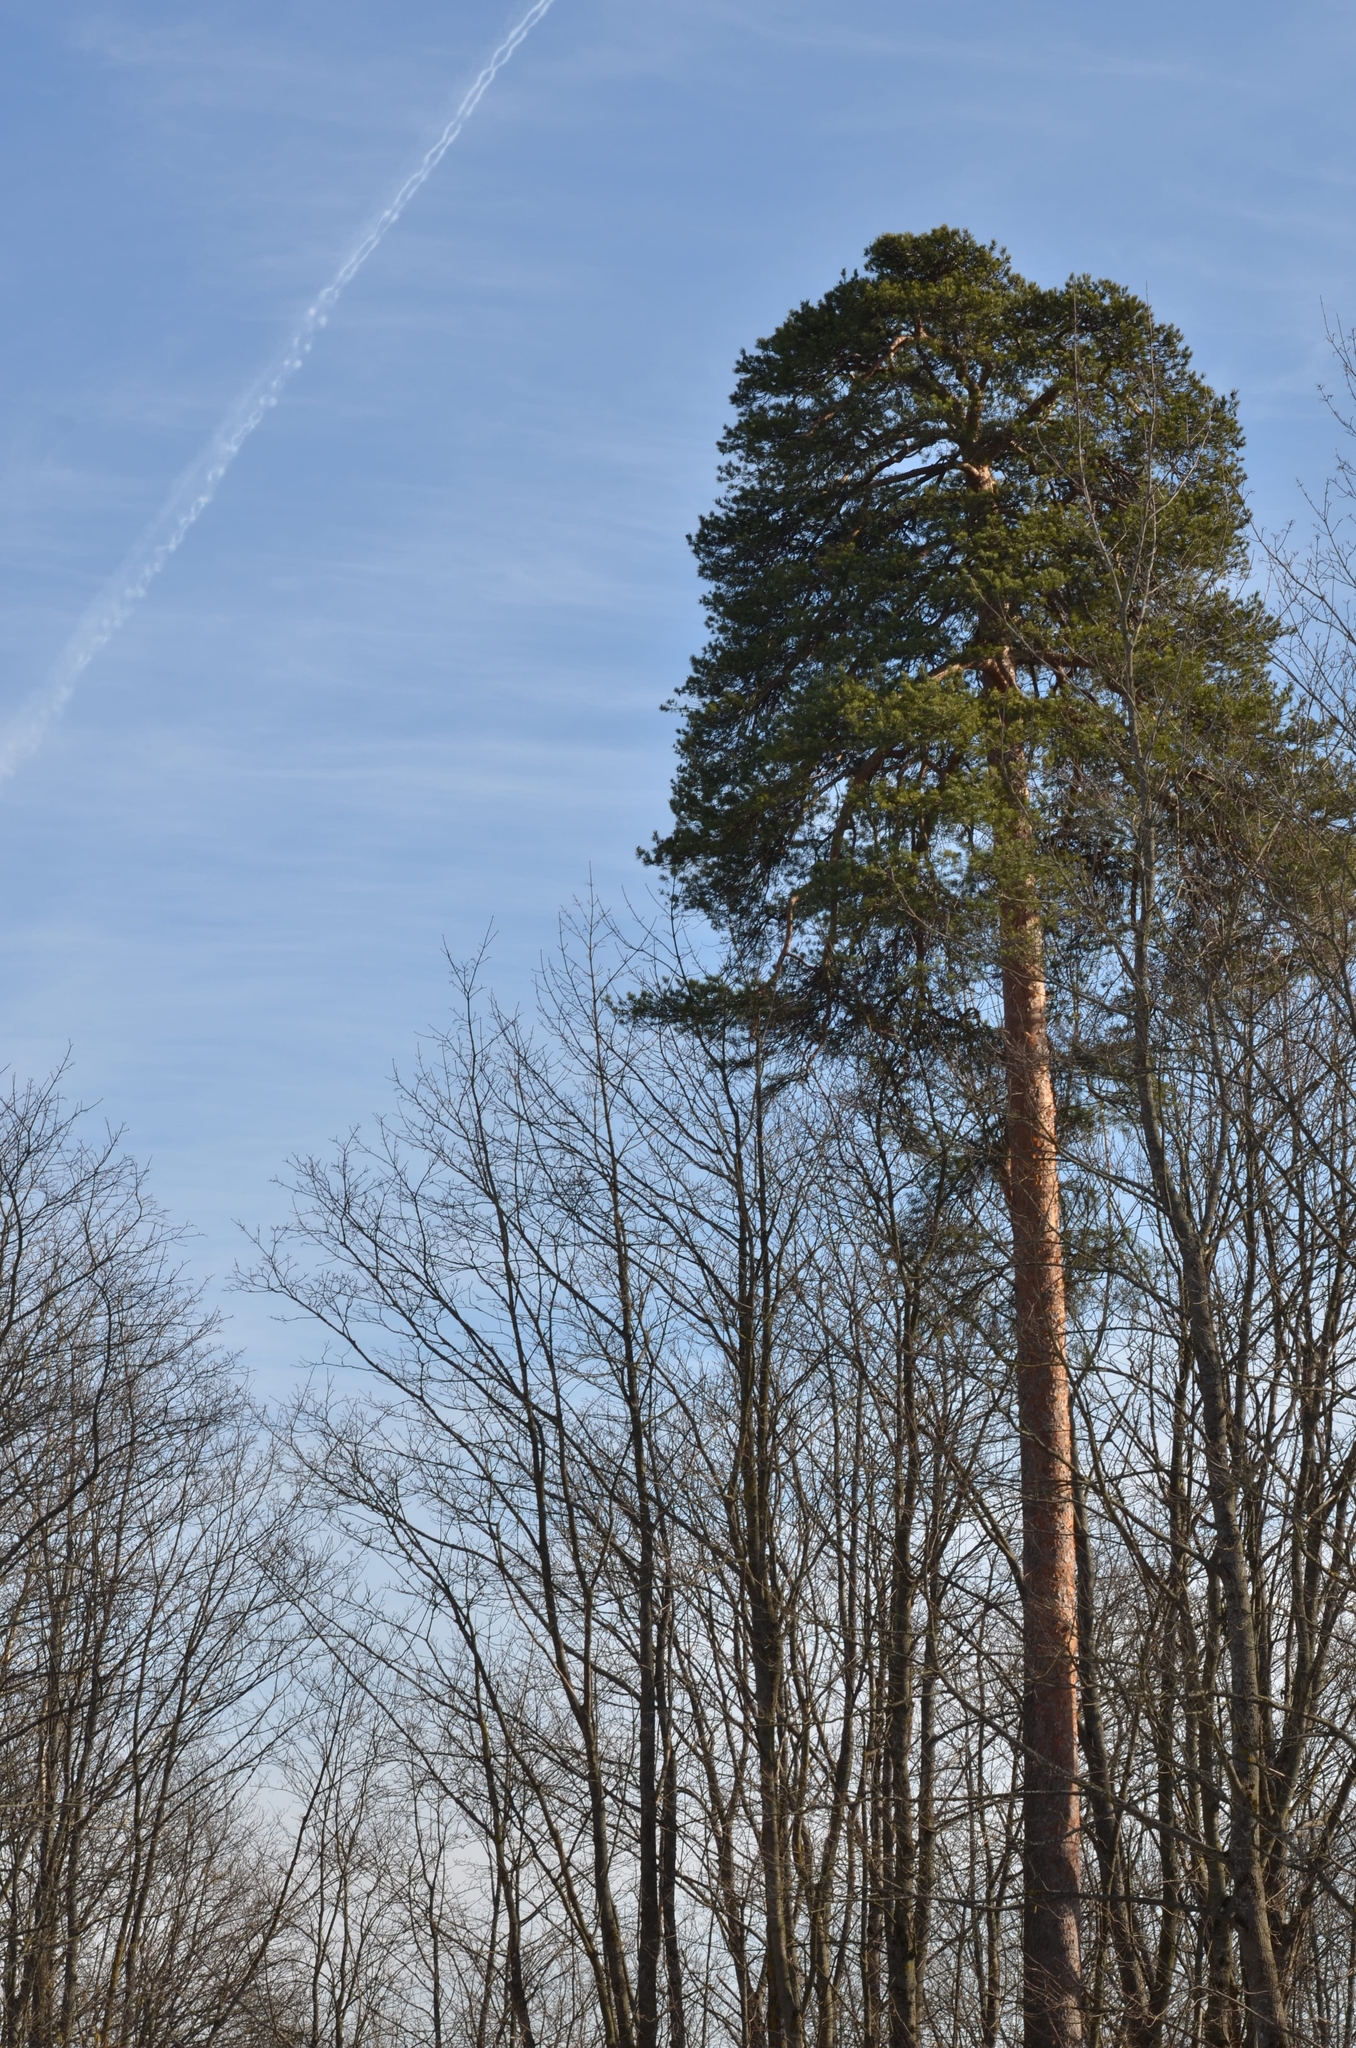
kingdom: Plantae
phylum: Tracheophyta
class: Pinopsida
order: Pinales
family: Pinaceae
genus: Pinus
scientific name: Pinus sylvestris
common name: Scots pine
